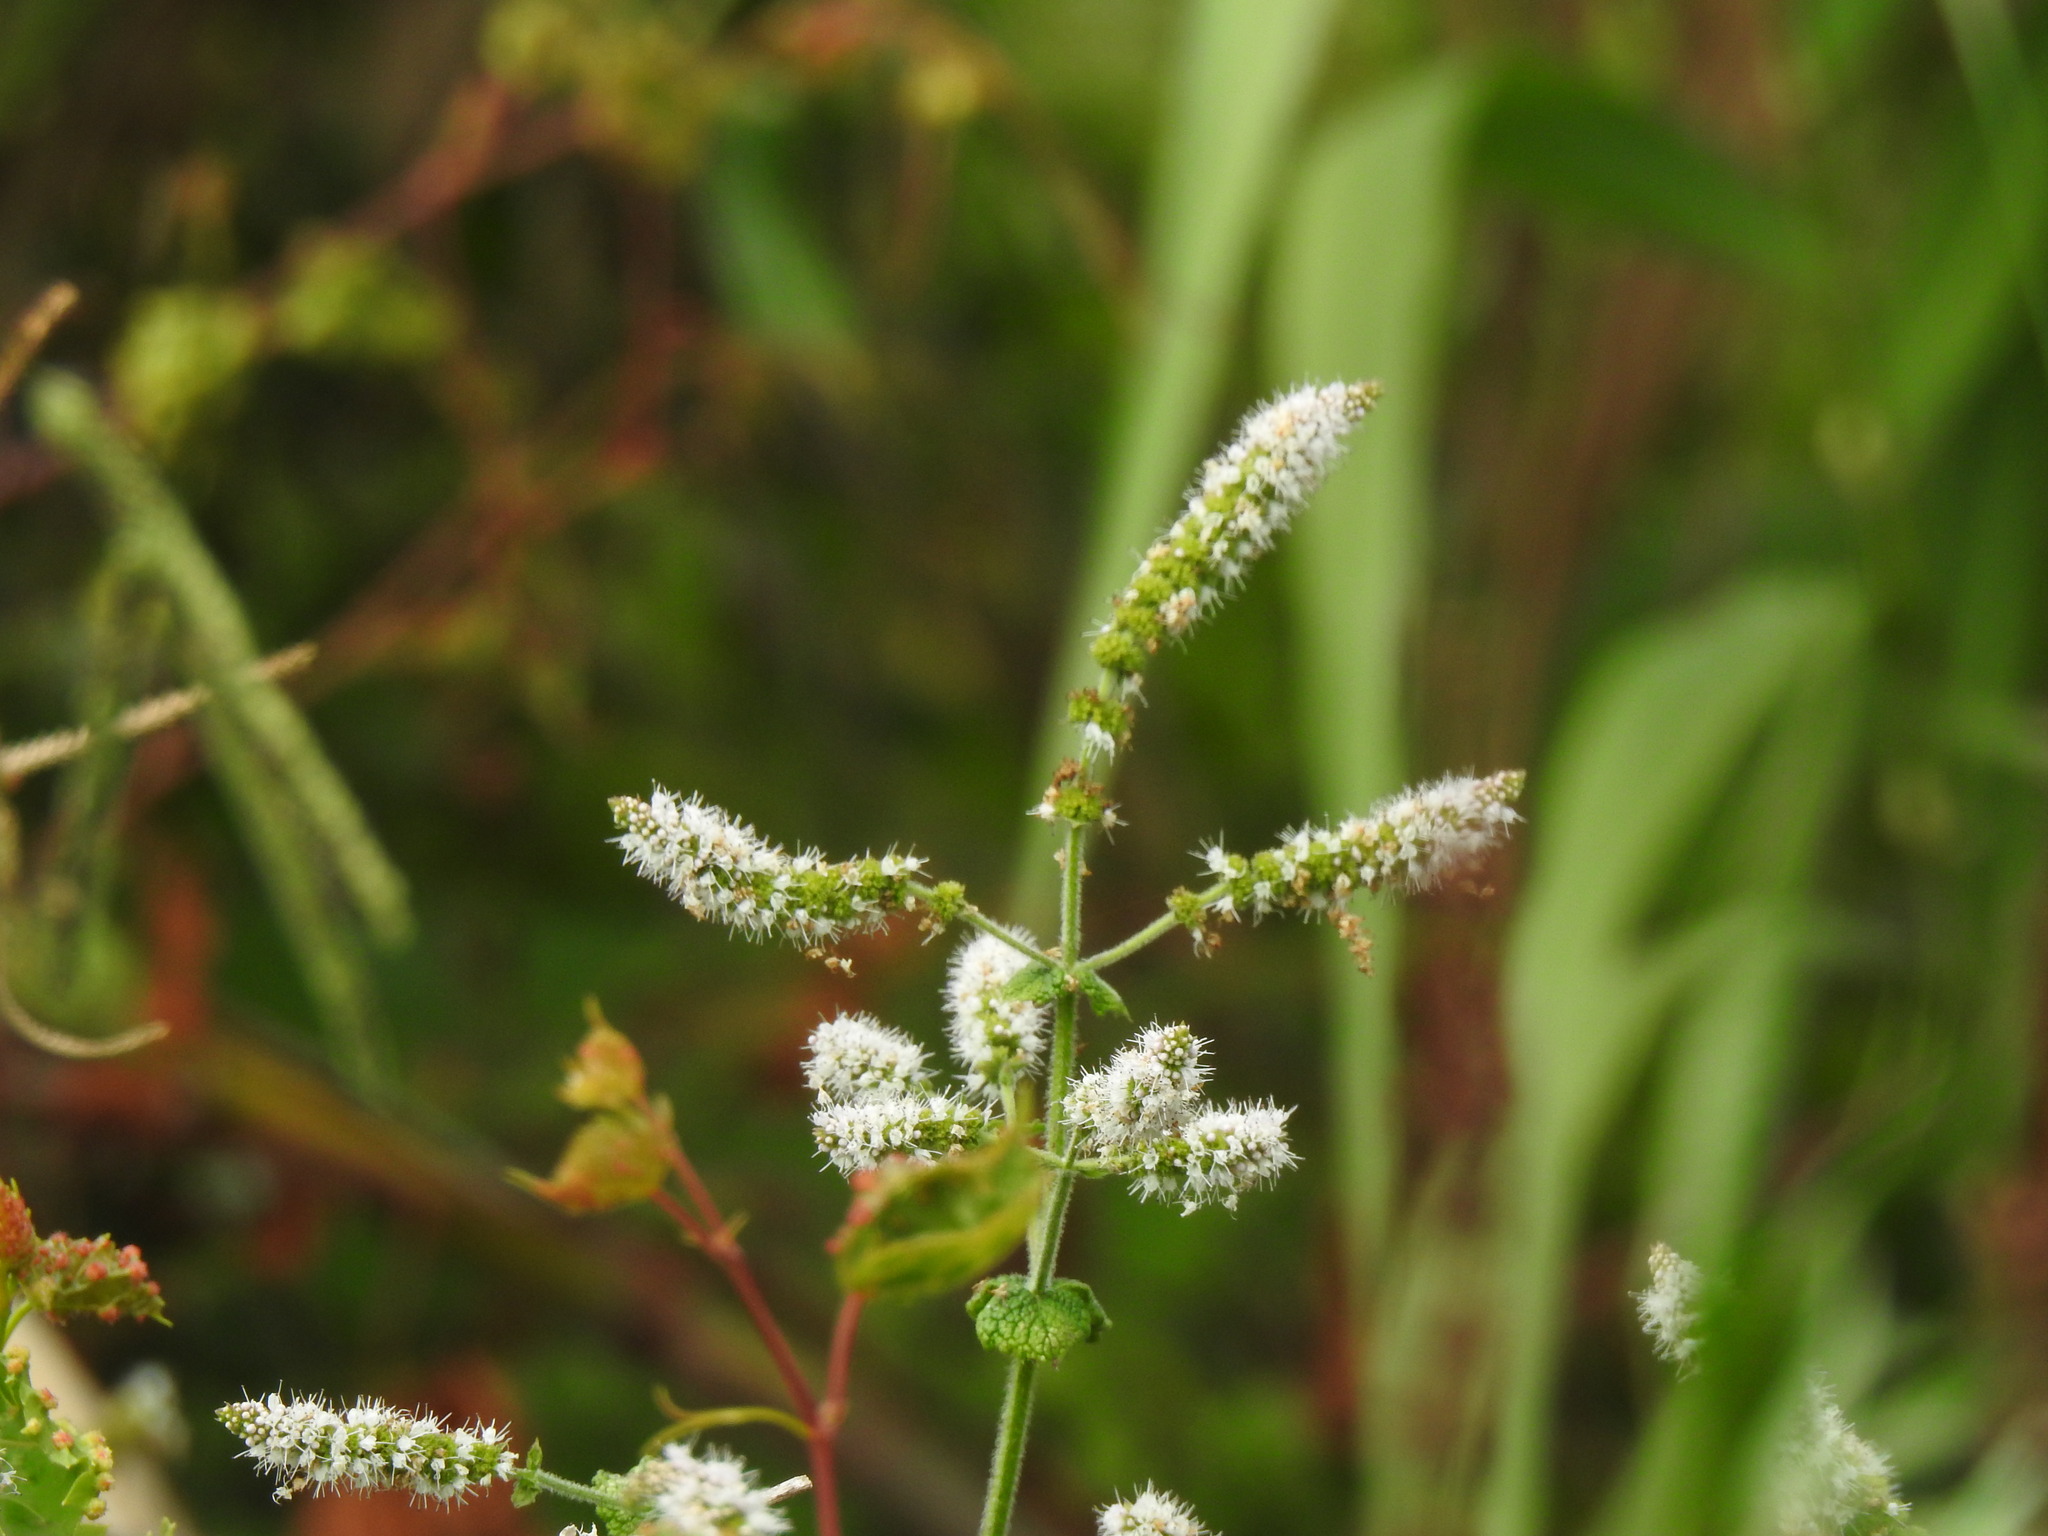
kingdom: Plantae
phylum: Tracheophyta
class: Magnoliopsida
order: Lamiales
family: Lamiaceae
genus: Mentha
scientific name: Mentha suaveolens
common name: Apple mint
